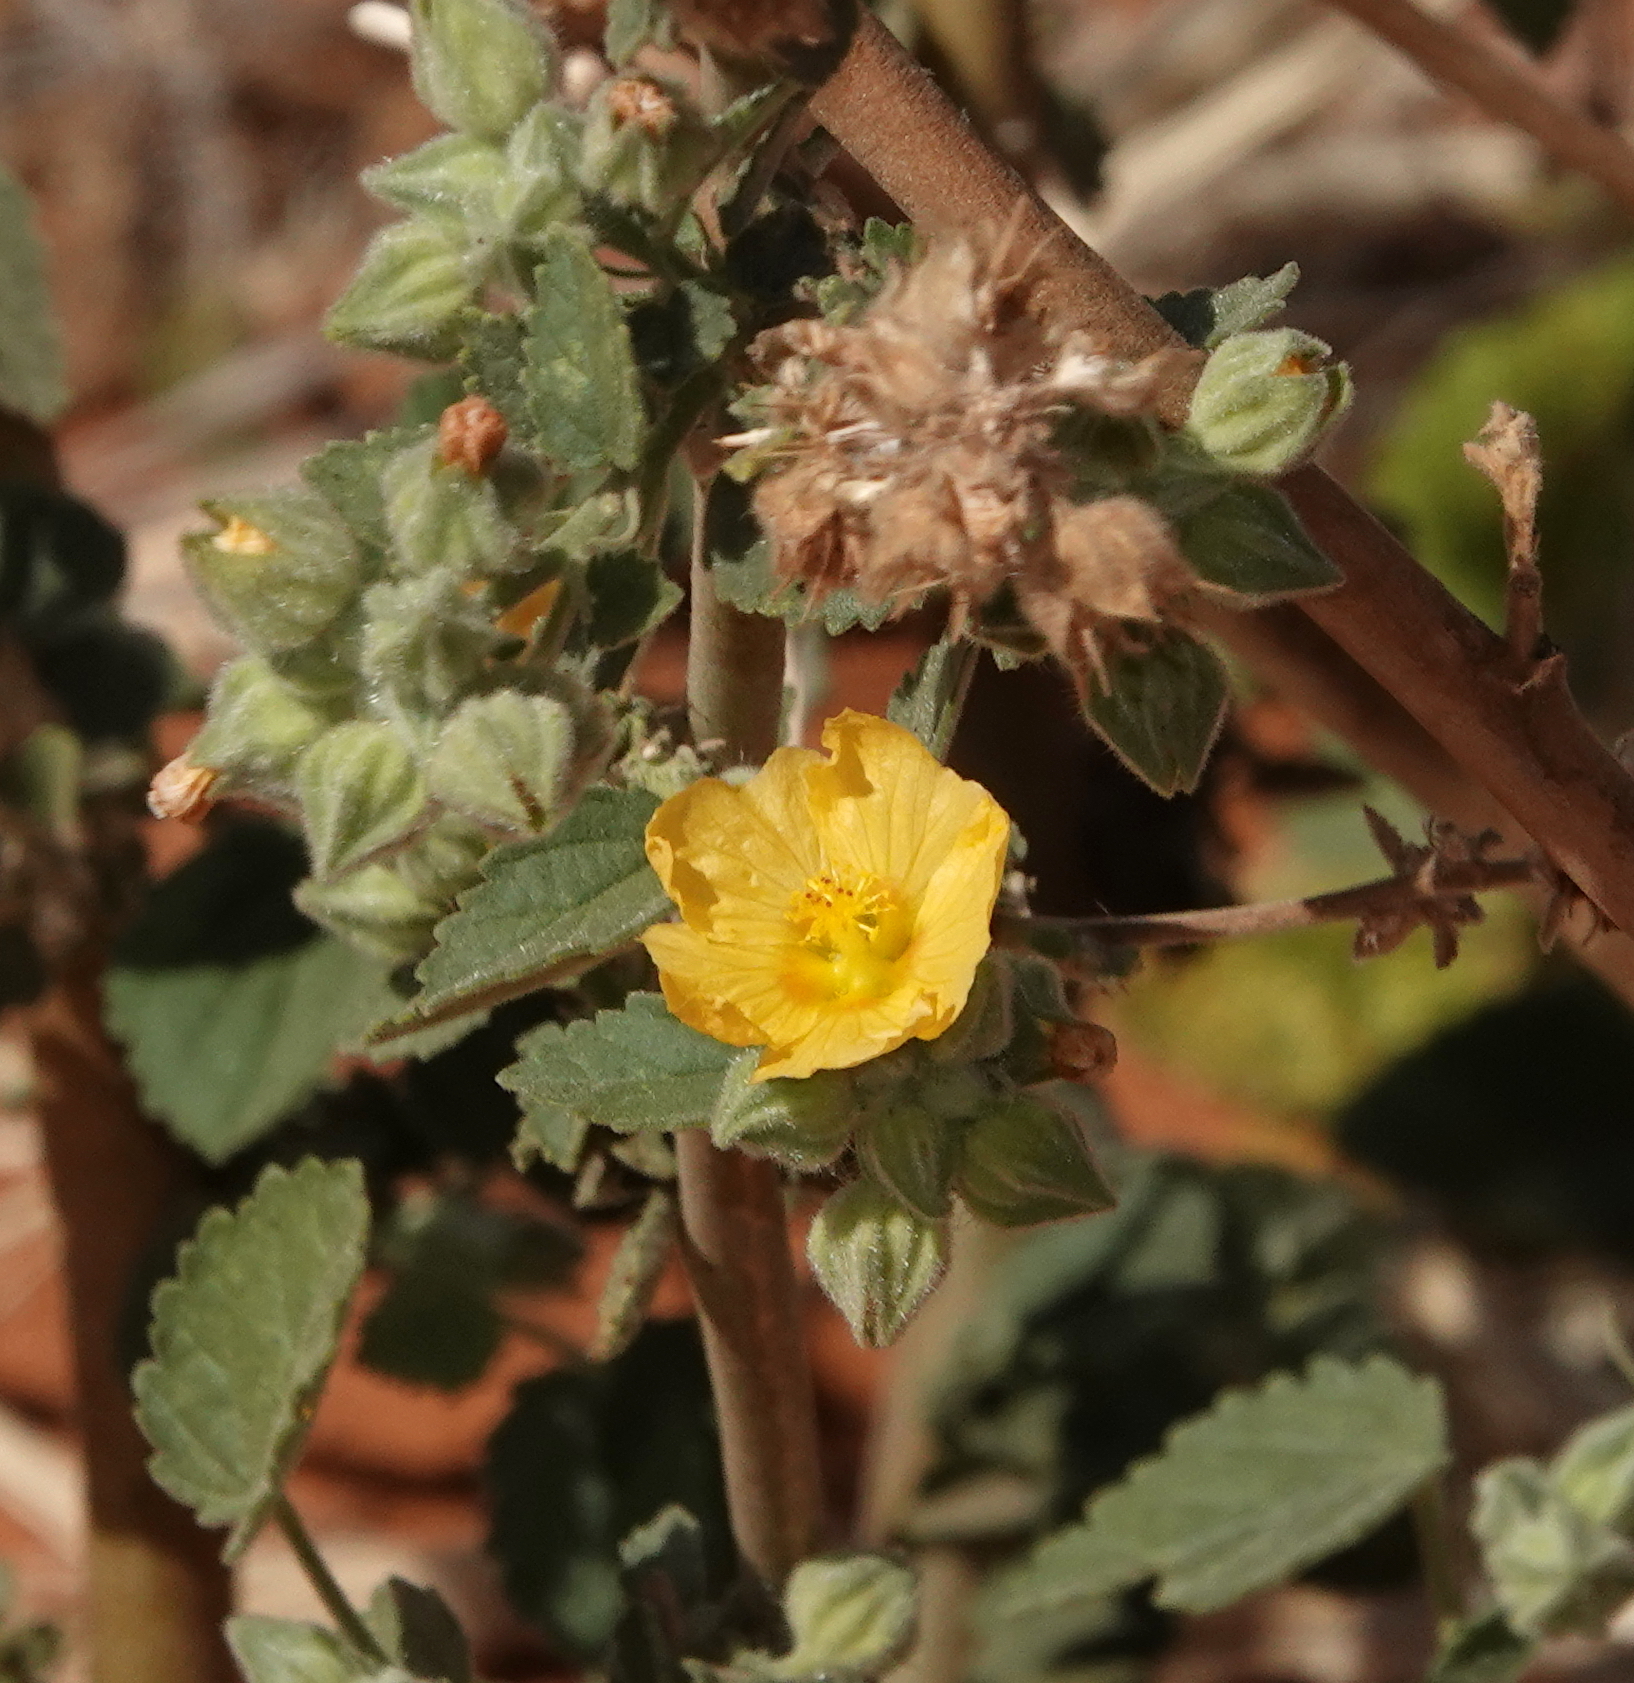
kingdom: Plantae
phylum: Tracheophyta
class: Magnoliopsida
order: Malvales
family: Malvaceae
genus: Sida
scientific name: Sida cordifolia
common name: Ilima
